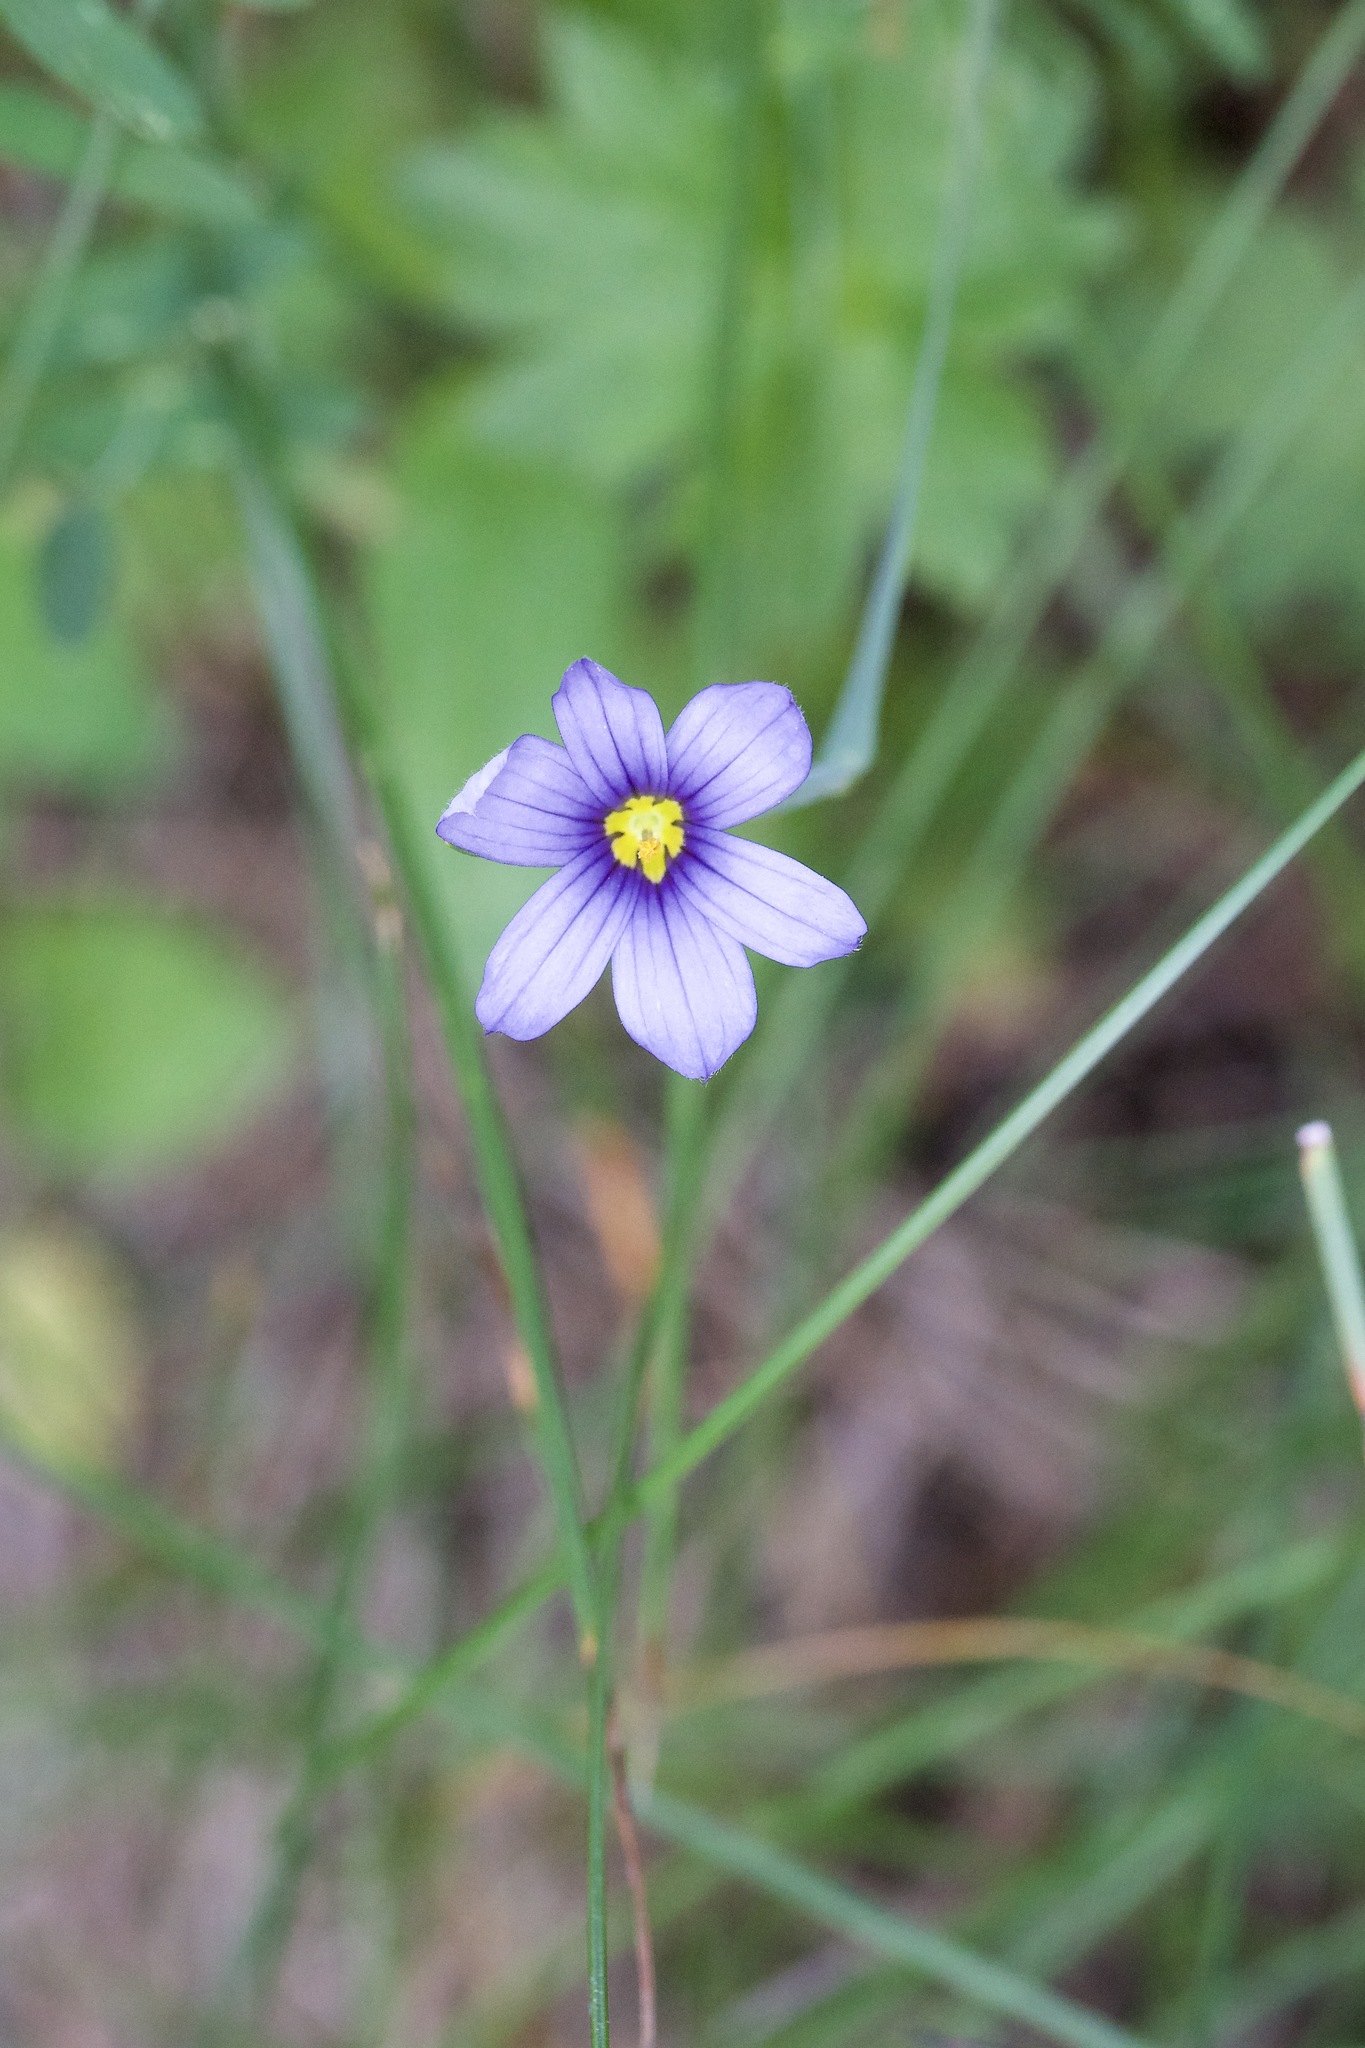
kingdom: Plantae
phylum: Tracheophyta
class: Liliopsida
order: Asparagales
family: Iridaceae
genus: Sisyrinchium
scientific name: Sisyrinchium montanum
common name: American blue-eyed-grass
